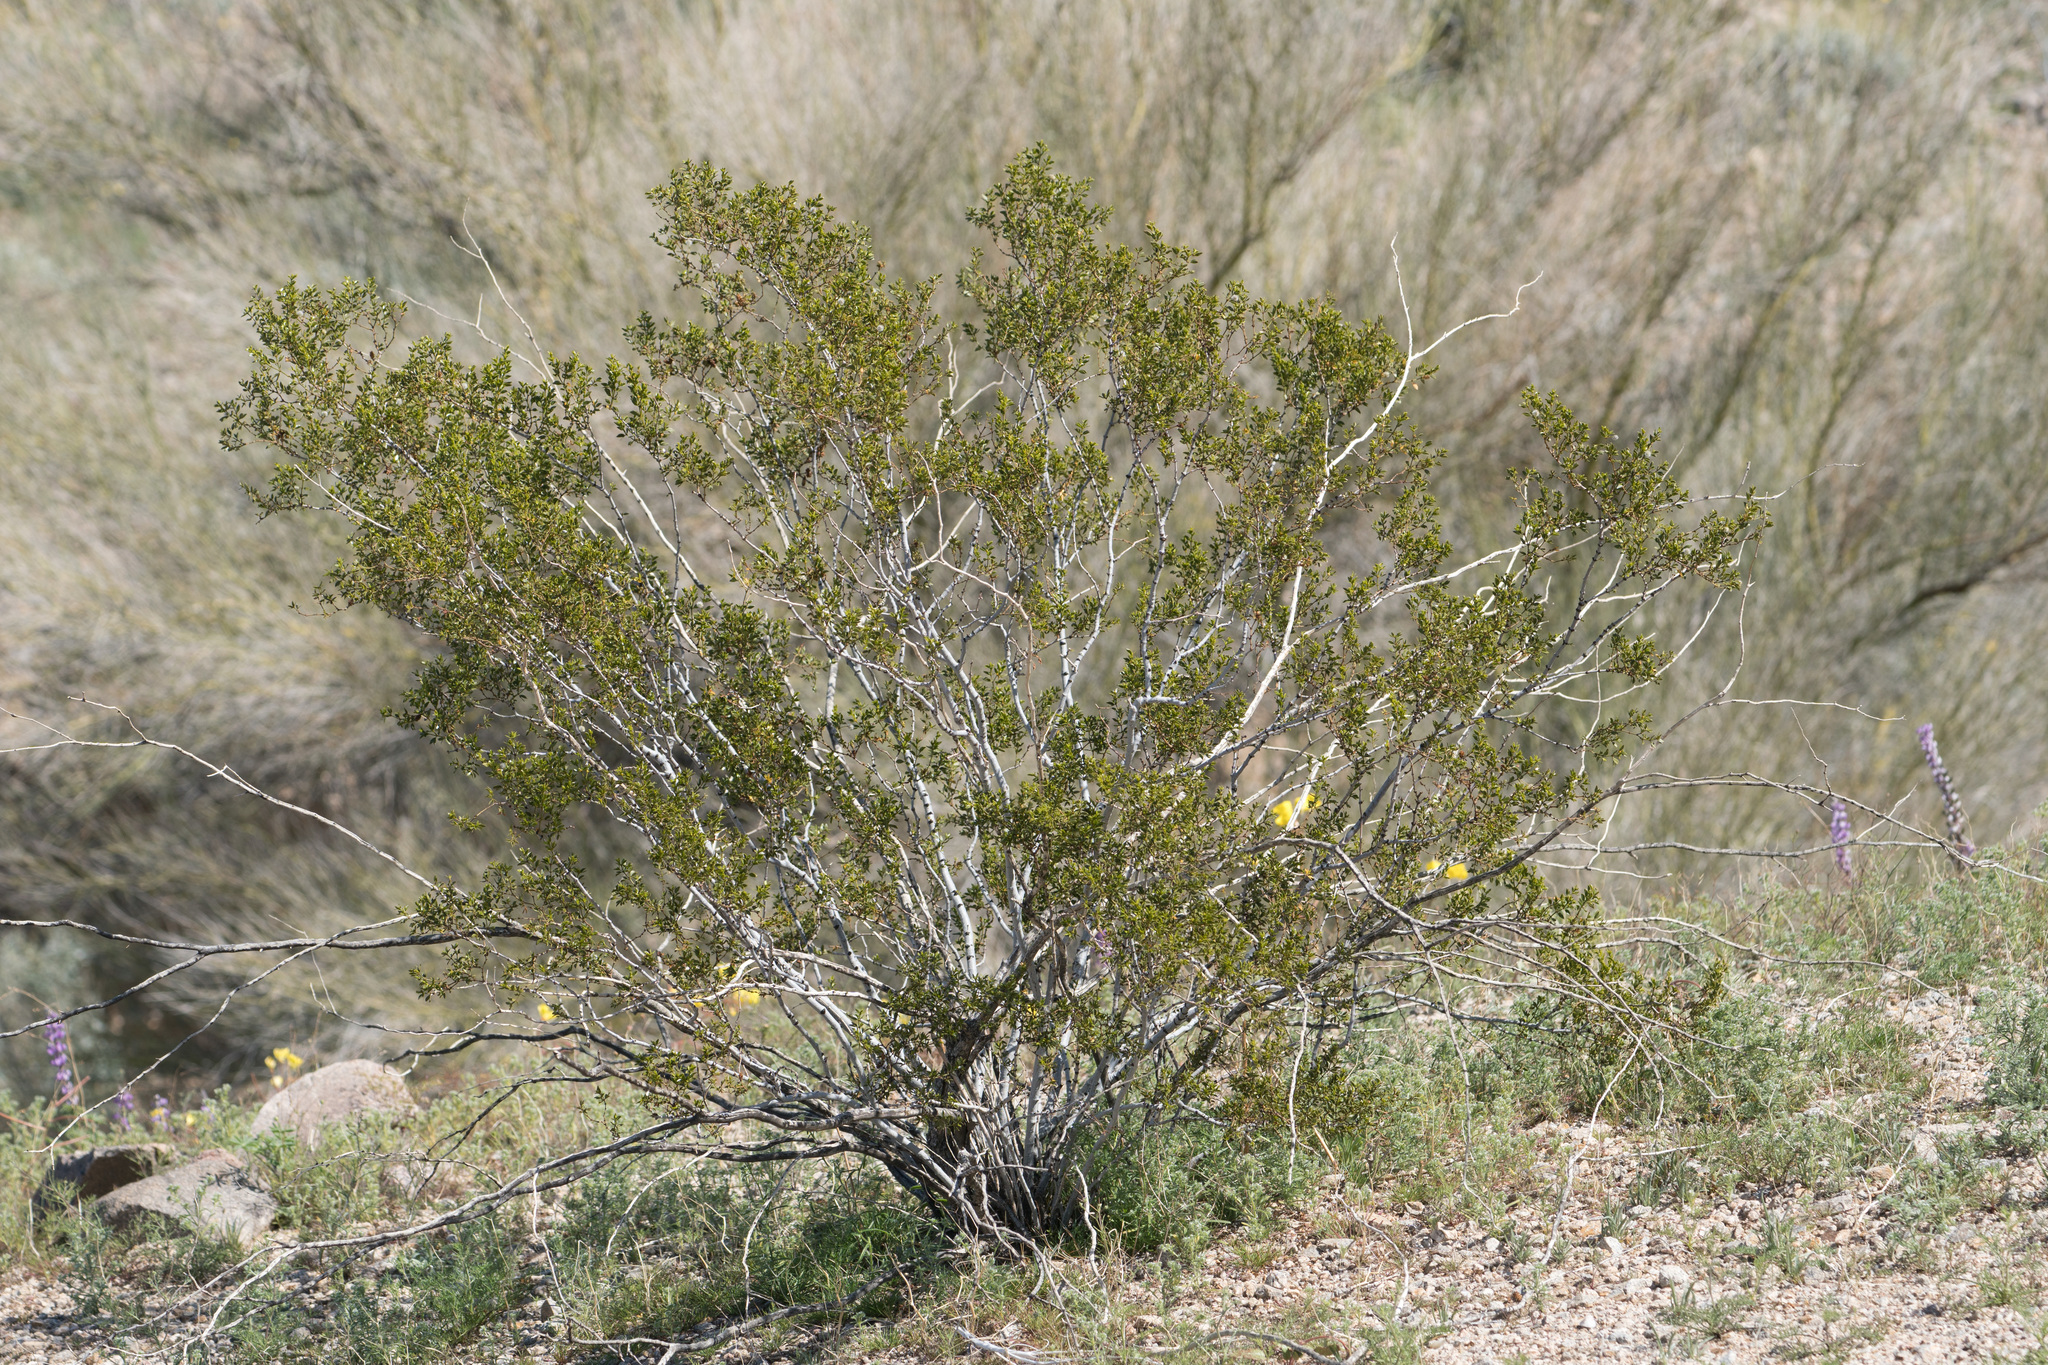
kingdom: Plantae
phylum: Tracheophyta
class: Magnoliopsida
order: Zygophyllales
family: Zygophyllaceae
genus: Larrea
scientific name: Larrea tridentata
